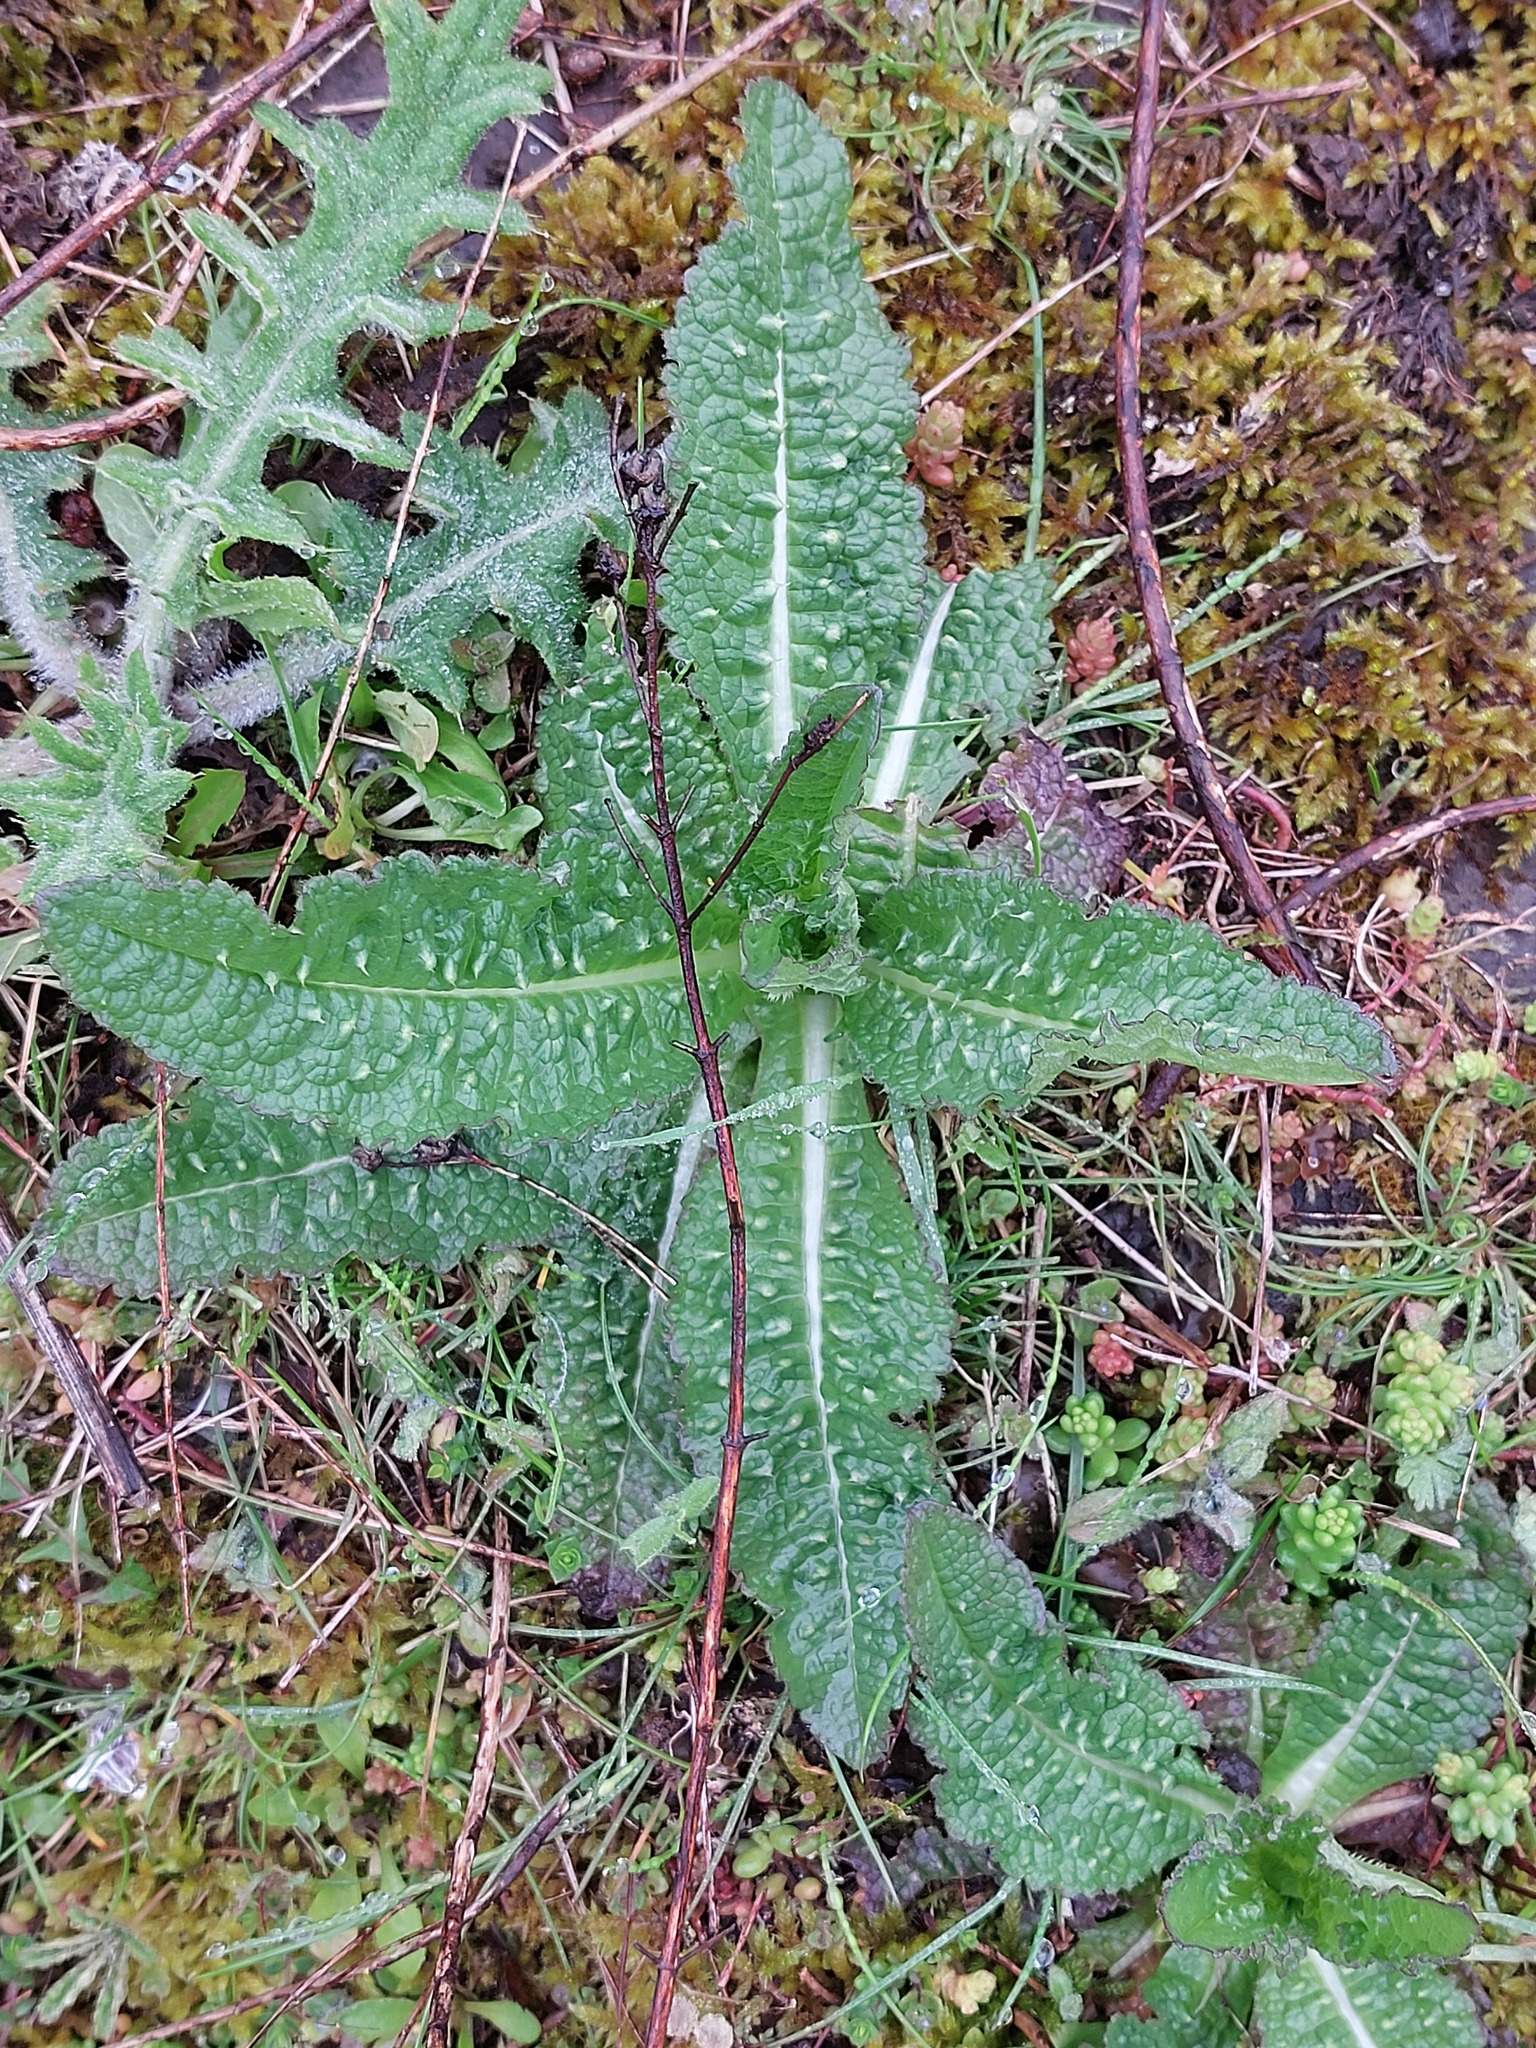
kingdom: Plantae
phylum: Tracheophyta
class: Magnoliopsida
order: Dipsacales
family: Caprifoliaceae
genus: Dipsacus
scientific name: Dipsacus fullonum
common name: Teasel
